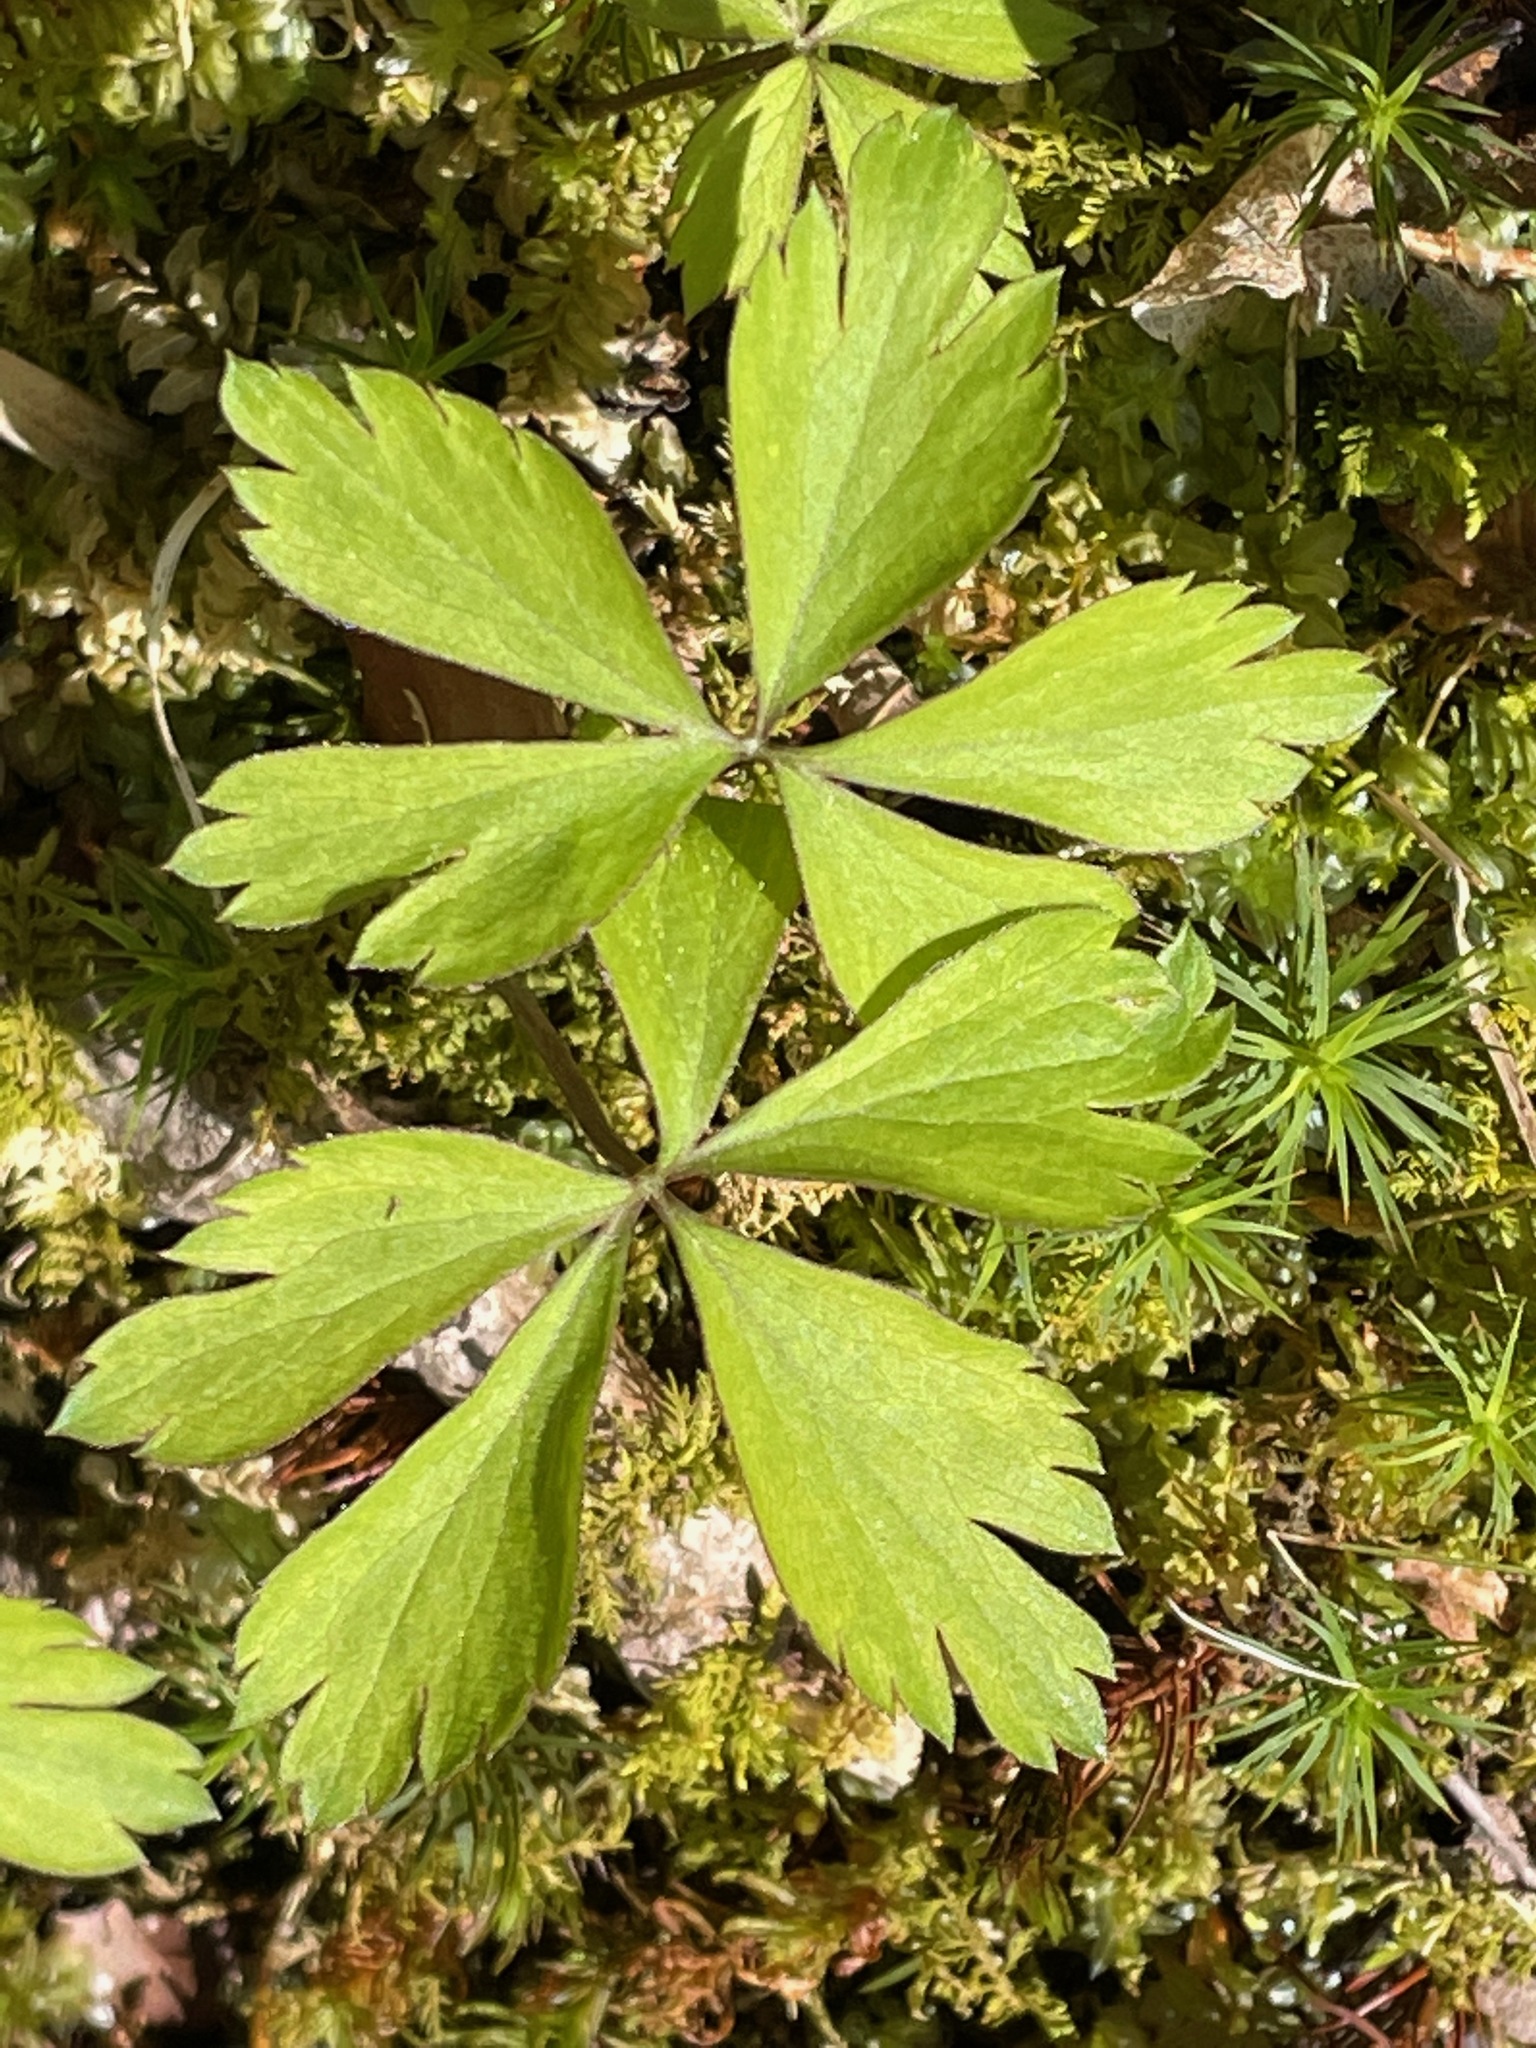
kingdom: Plantae
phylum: Tracheophyta
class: Magnoliopsida
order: Ranunculales
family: Ranunculaceae
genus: Anemone
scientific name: Anemone quinquefolia
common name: Wood anemone
